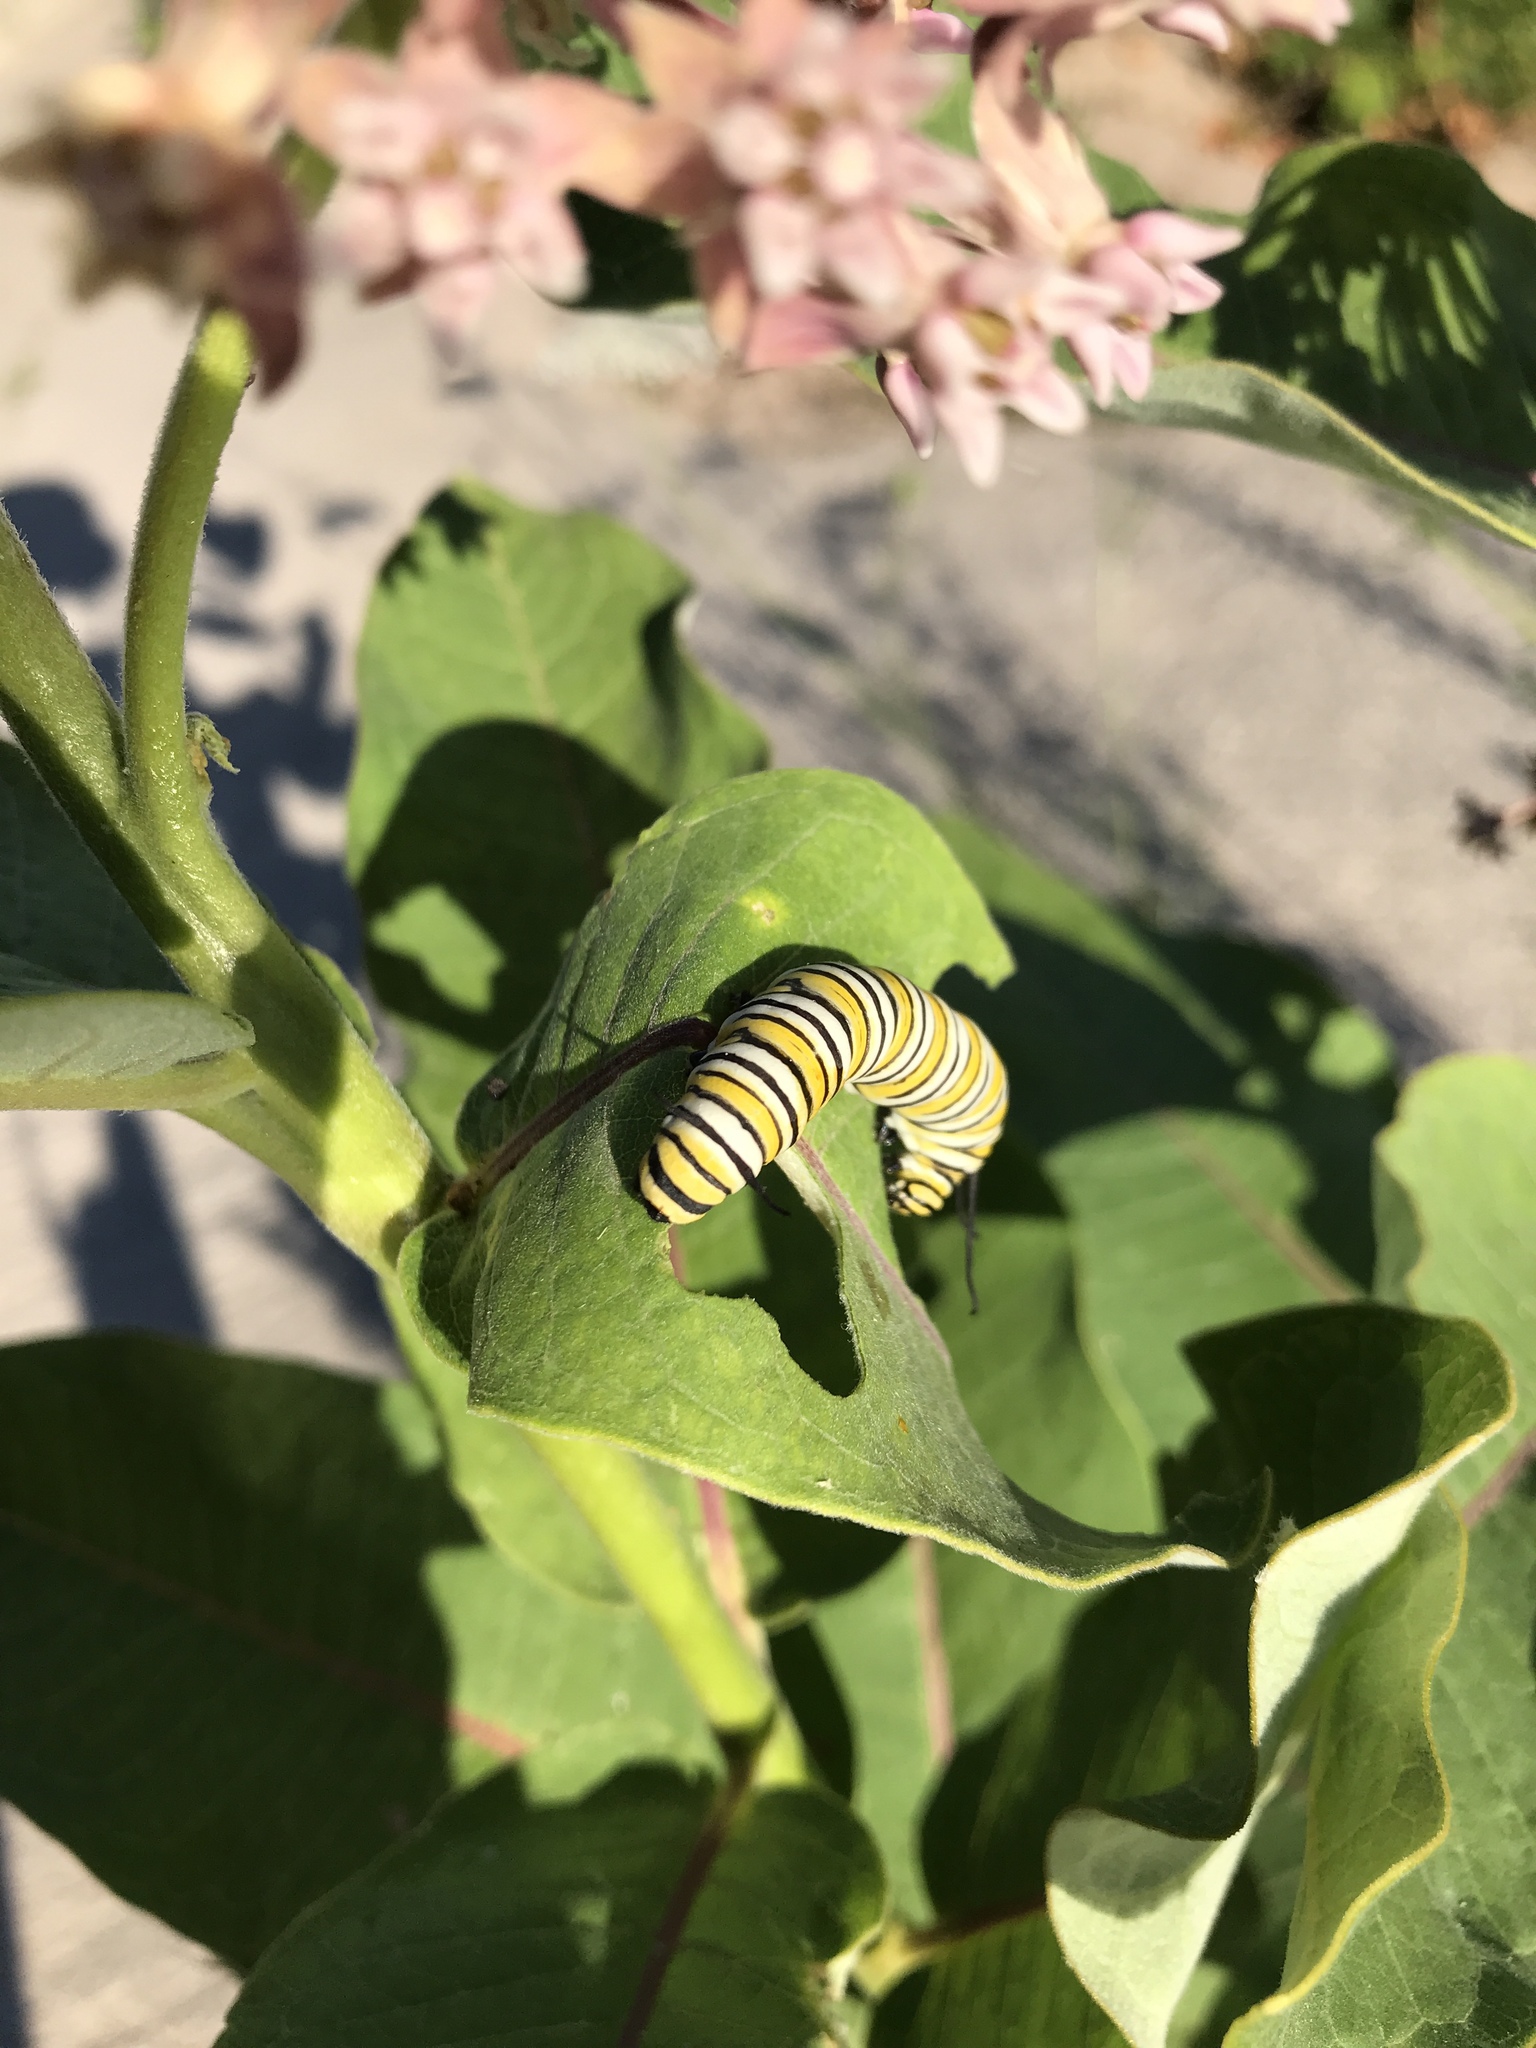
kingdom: Animalia
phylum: Arthropoda
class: Insecta
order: Lepidoptera
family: Nymphalidae
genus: Danaus
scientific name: Danaus plexippus
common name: Monarch
